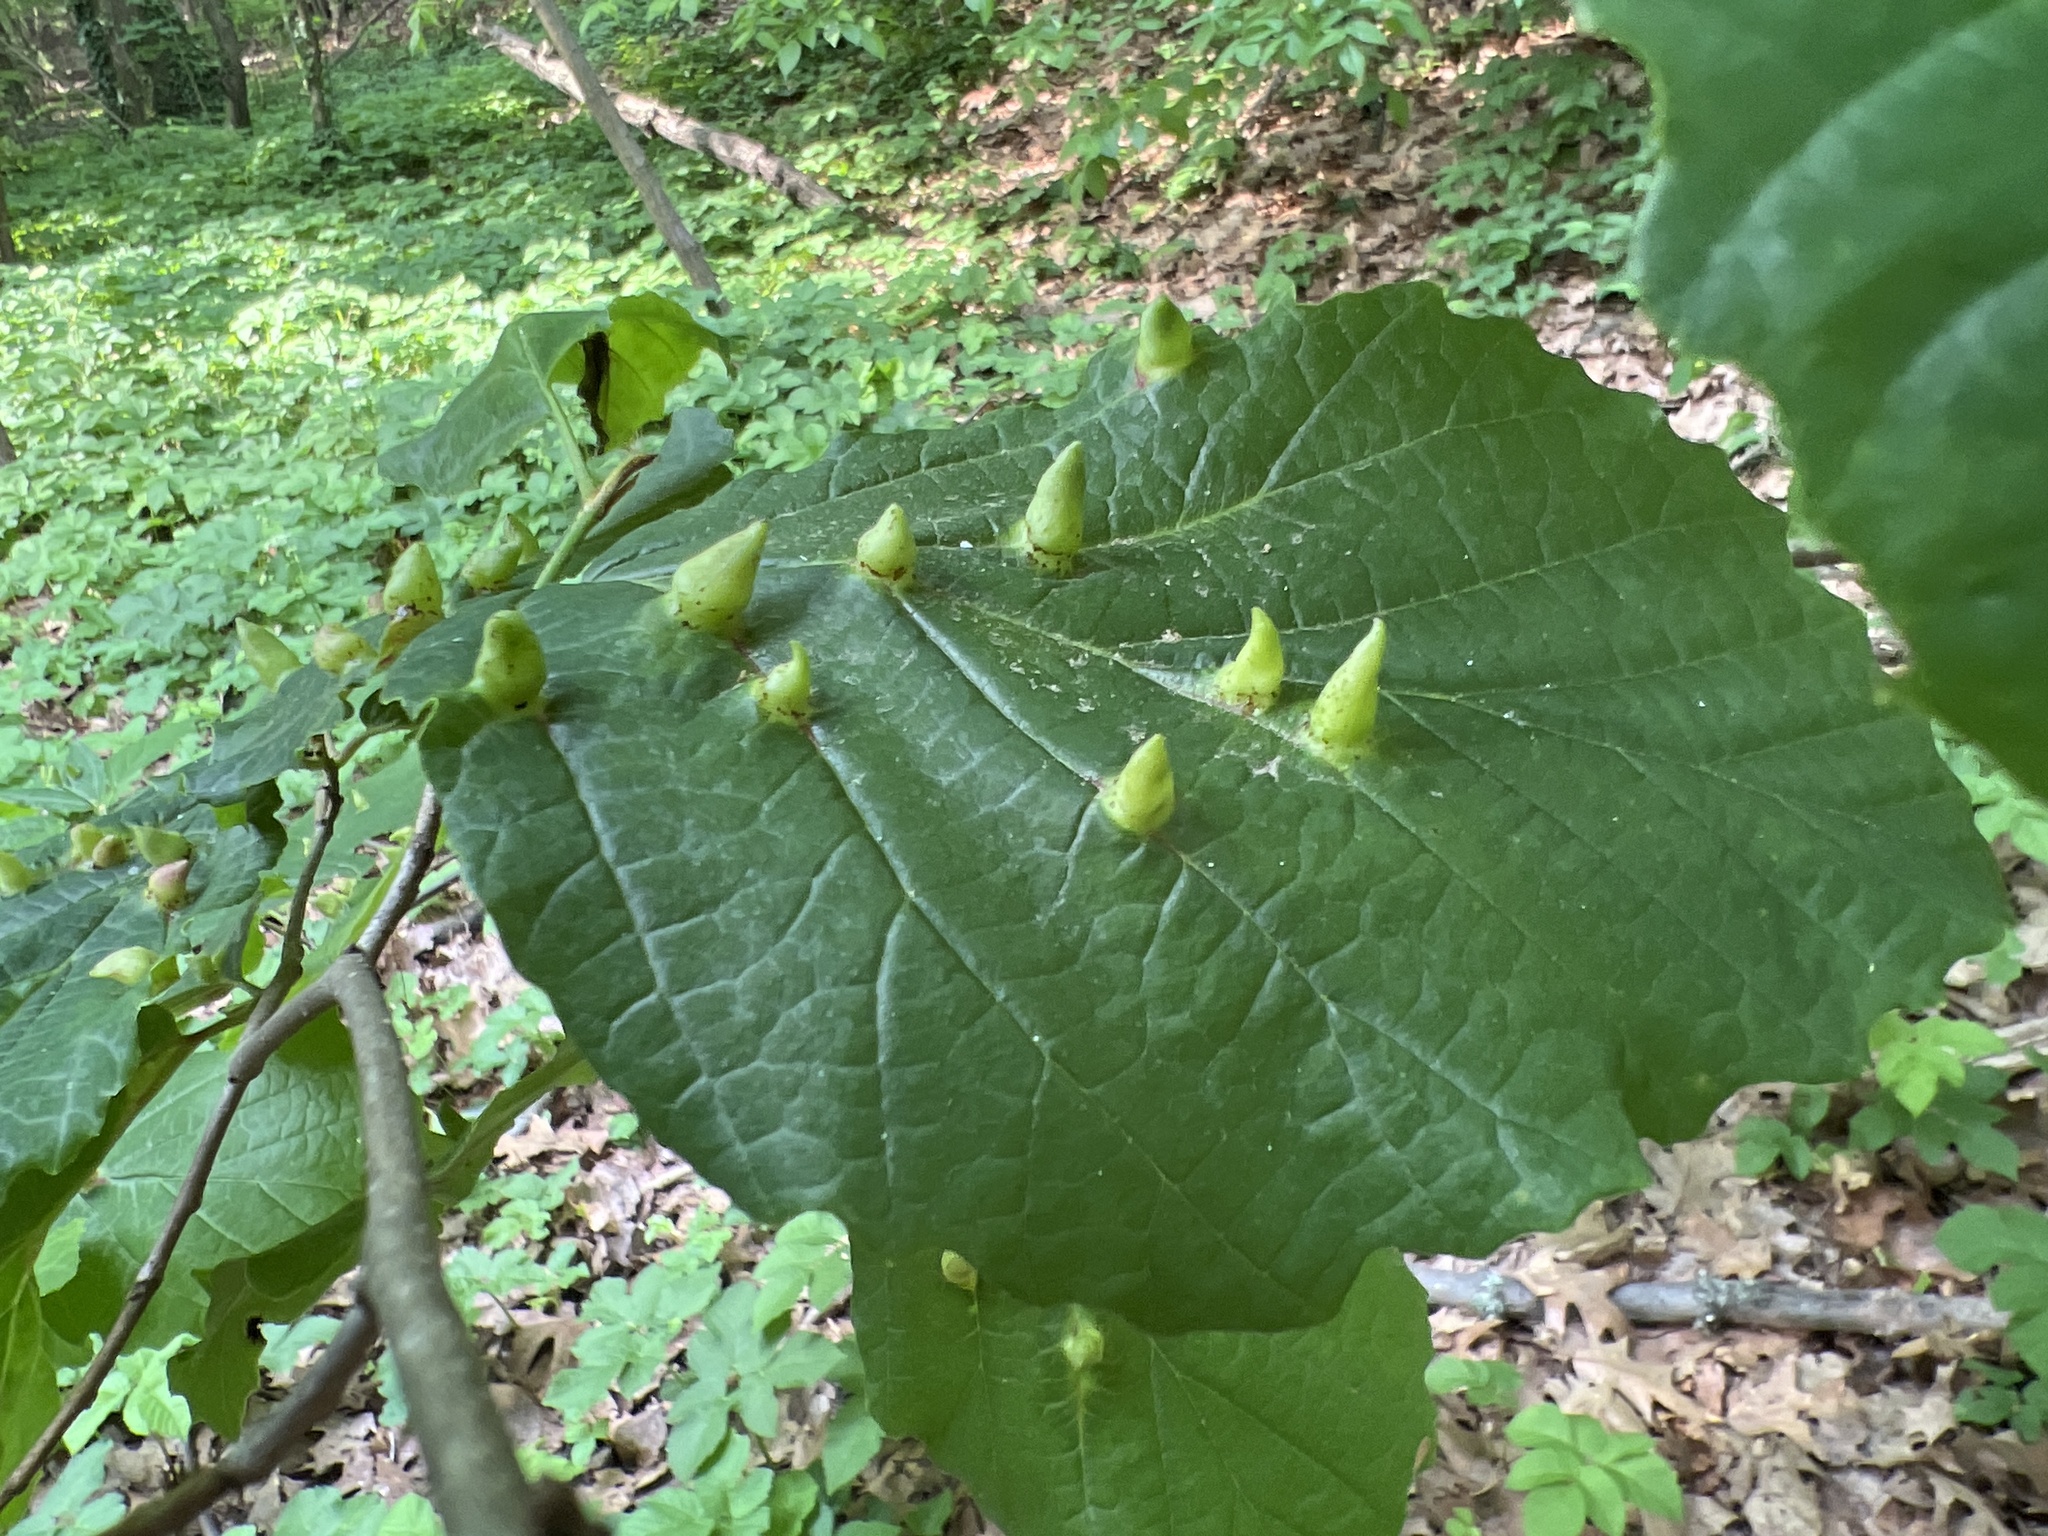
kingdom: Animalia
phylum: Arthropoda
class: Insecta
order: Hemiptera
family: Aphididae
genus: Hormaphis
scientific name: Hormaphis hamamelidis
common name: Witch-hazel cone gall aphid
